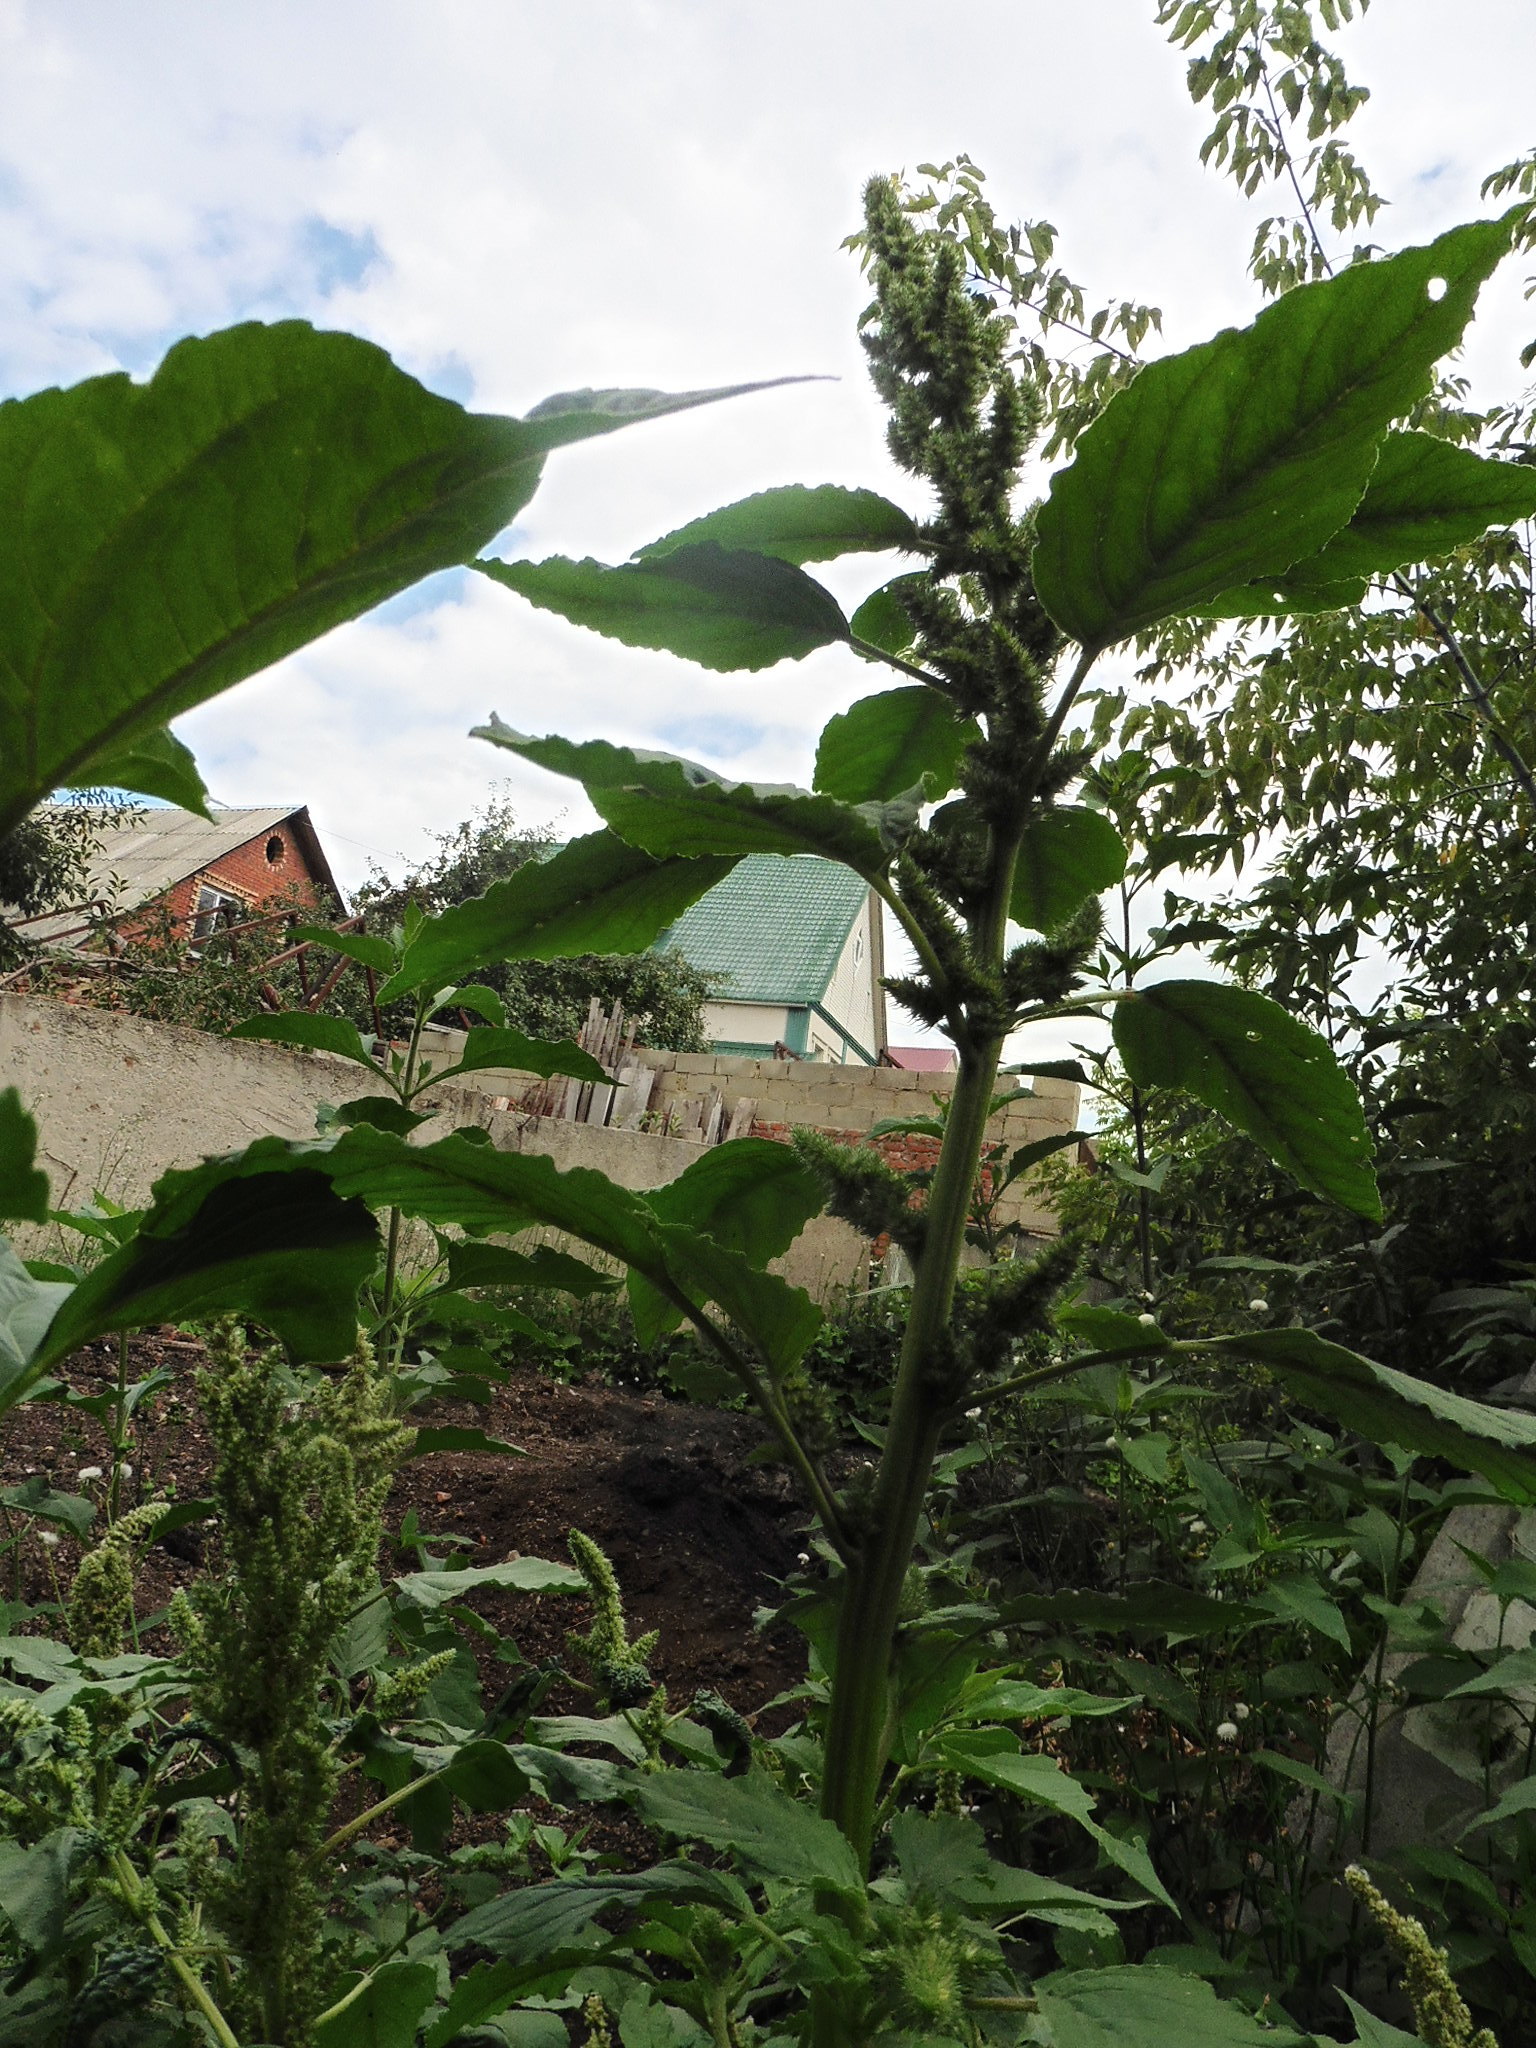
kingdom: Plantae
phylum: Tracheophyta
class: Magnoliopsida
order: Caryophyllales
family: Amaranthaceae
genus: Amaranthus
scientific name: Amaranthus retroflexus
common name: Redroot amaranth
